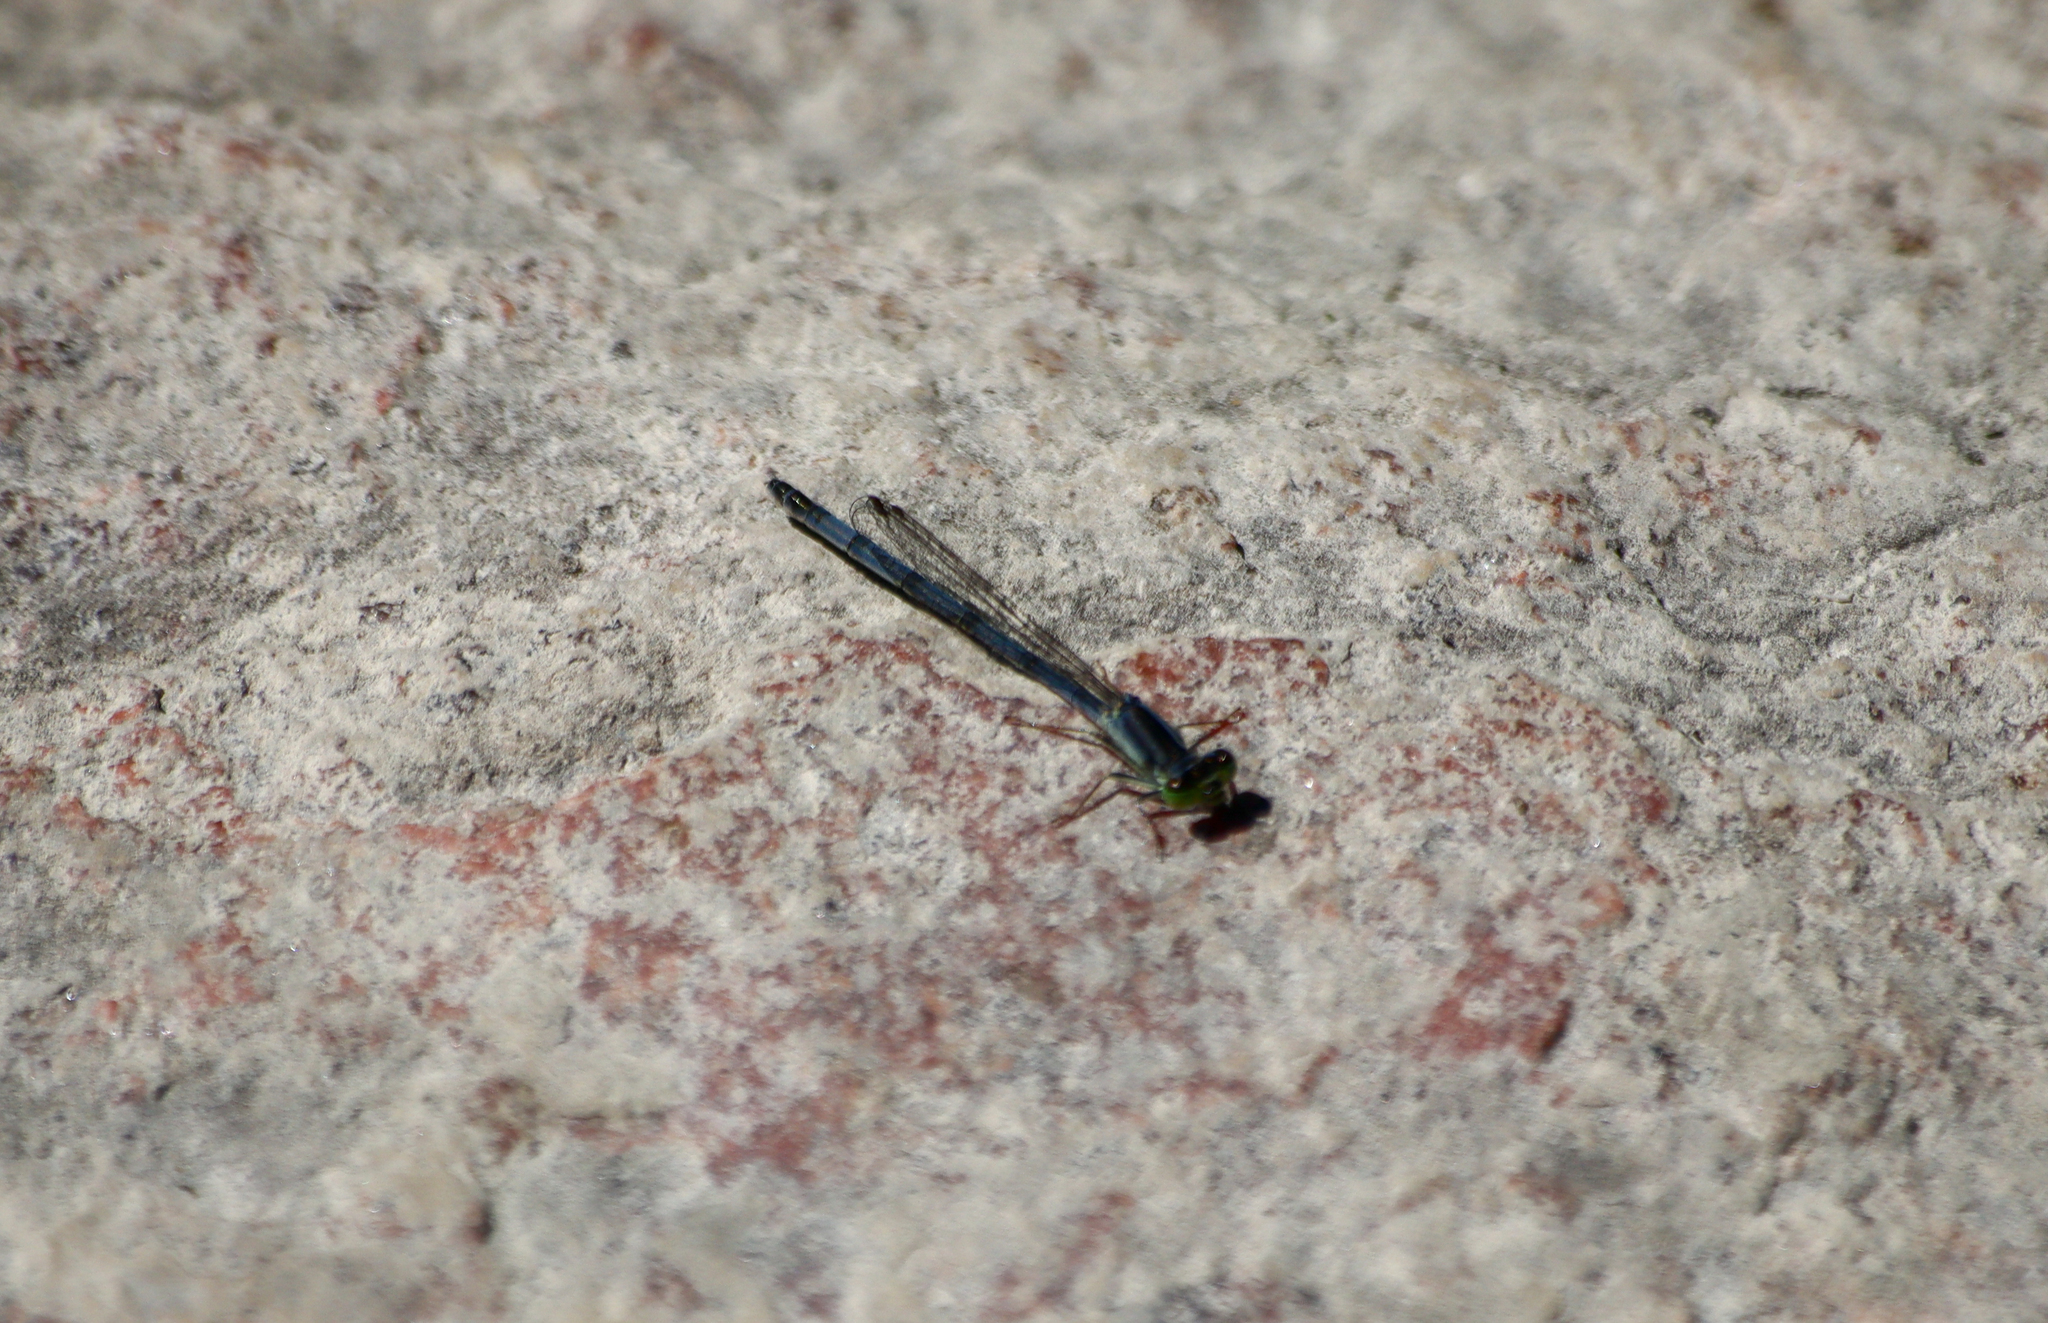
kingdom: Animalia
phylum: Arthropoda
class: Insecta
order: Odonata
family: Coenagrionidae
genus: Ischnura
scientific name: Ischnura verticalis
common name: Eastern forktail
